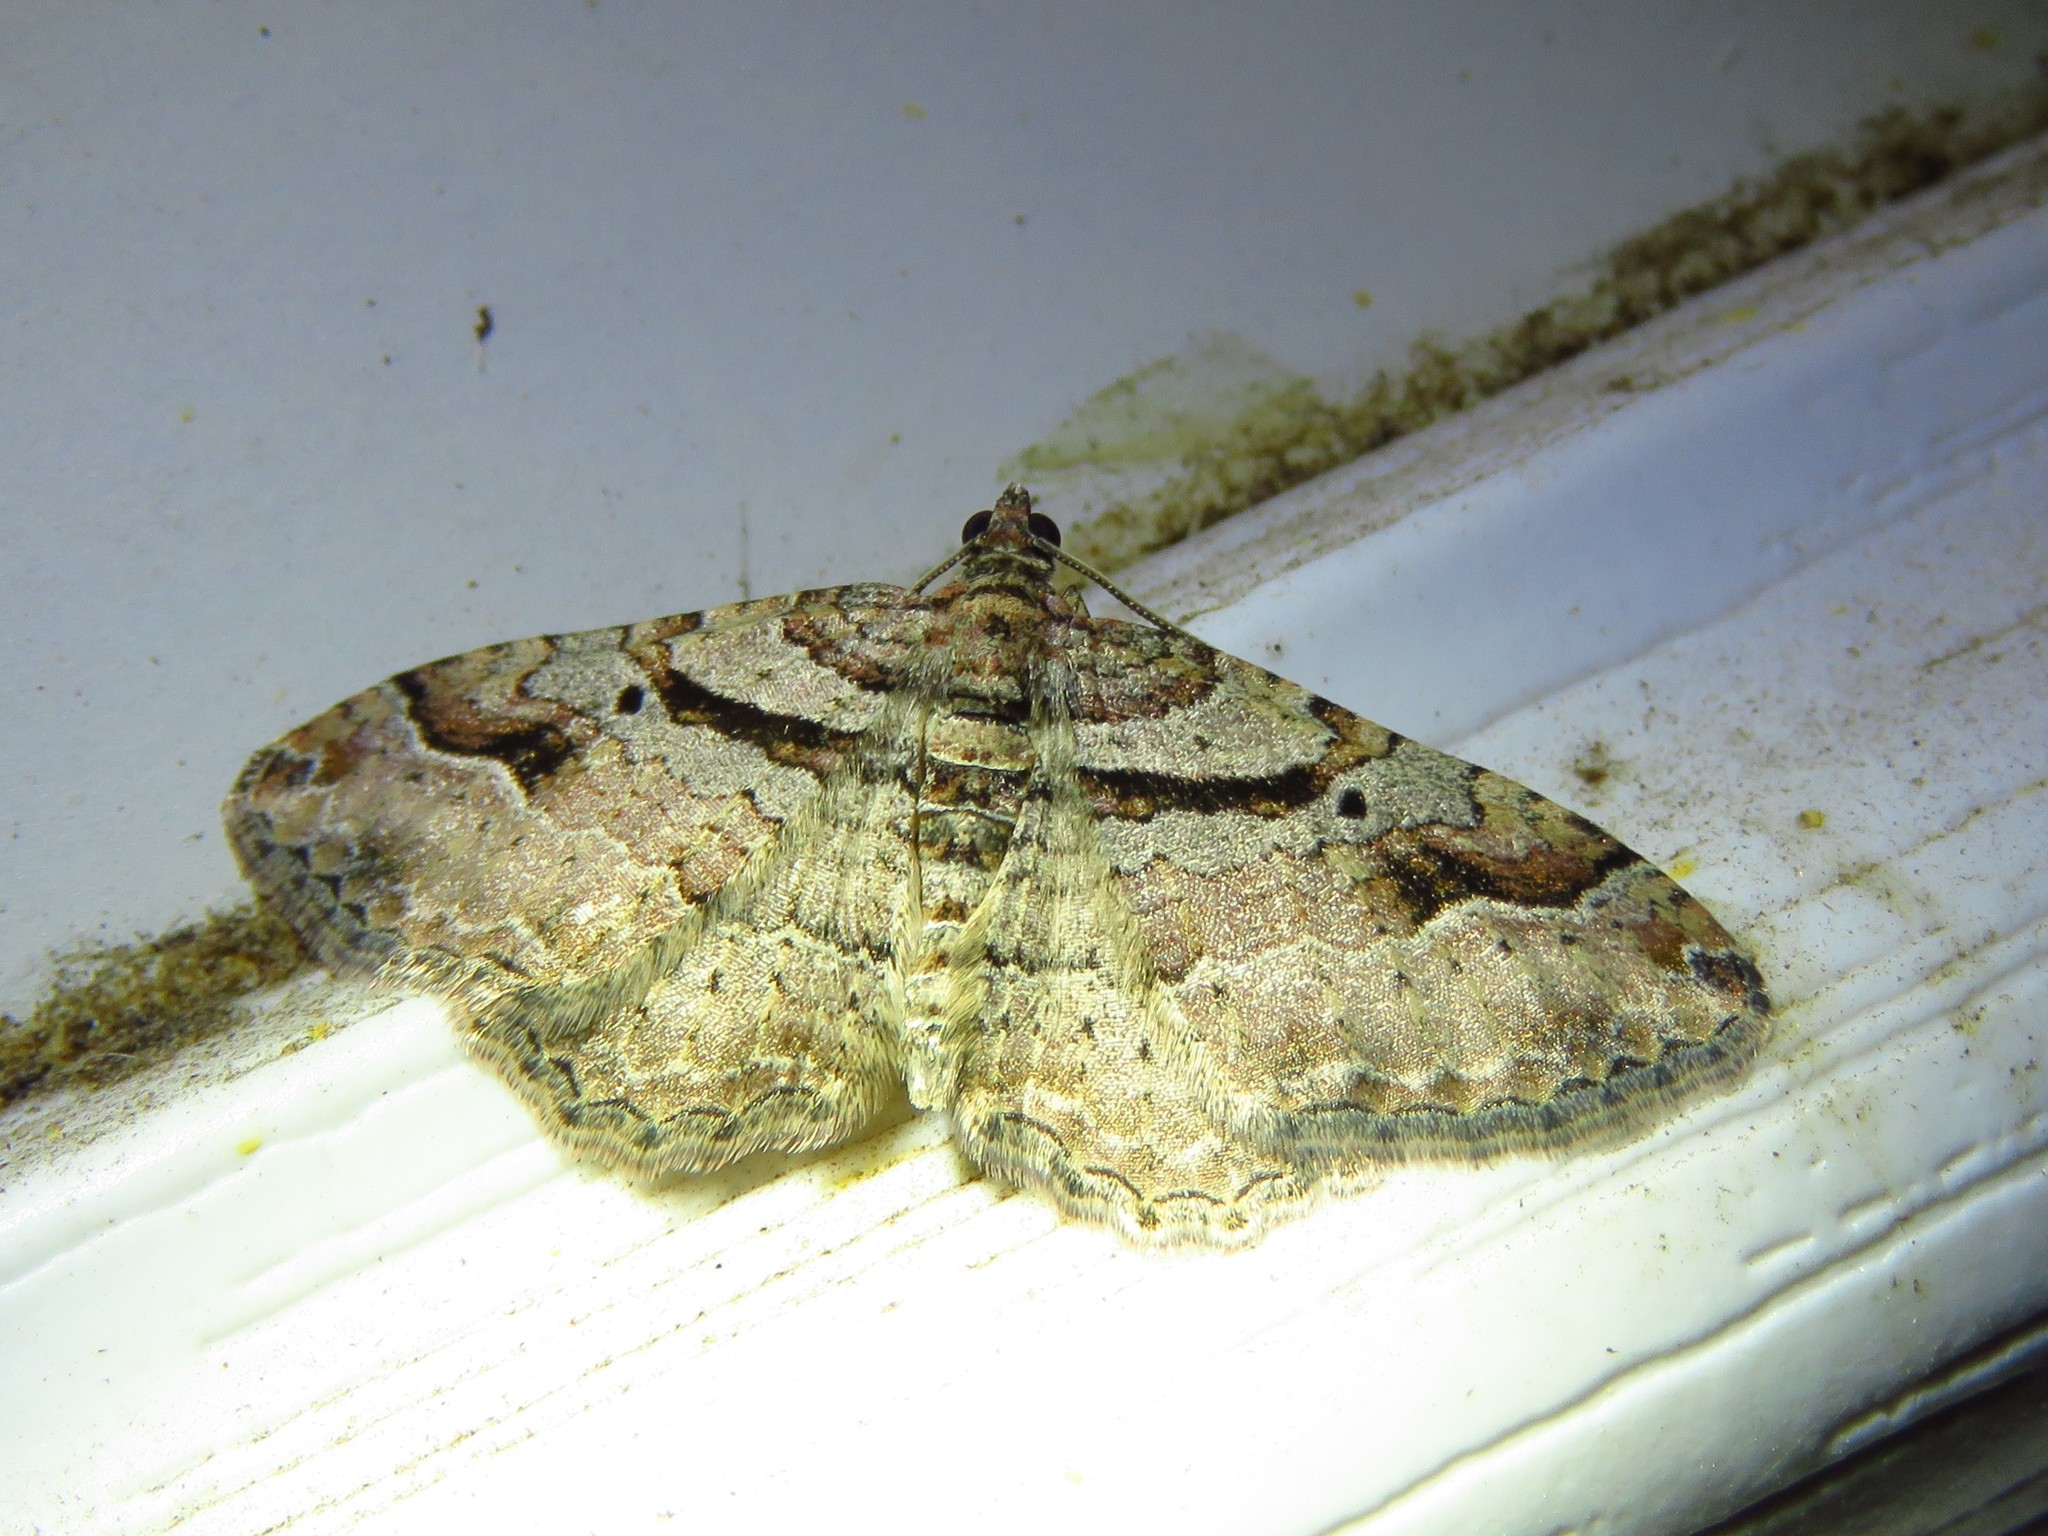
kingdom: Animalia
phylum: Arthropoda
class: Insecta
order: Lepidoptera
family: Geometridae
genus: Costaconvexa
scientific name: Costaconvexa centrostrigaria
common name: Bent-line carpet
